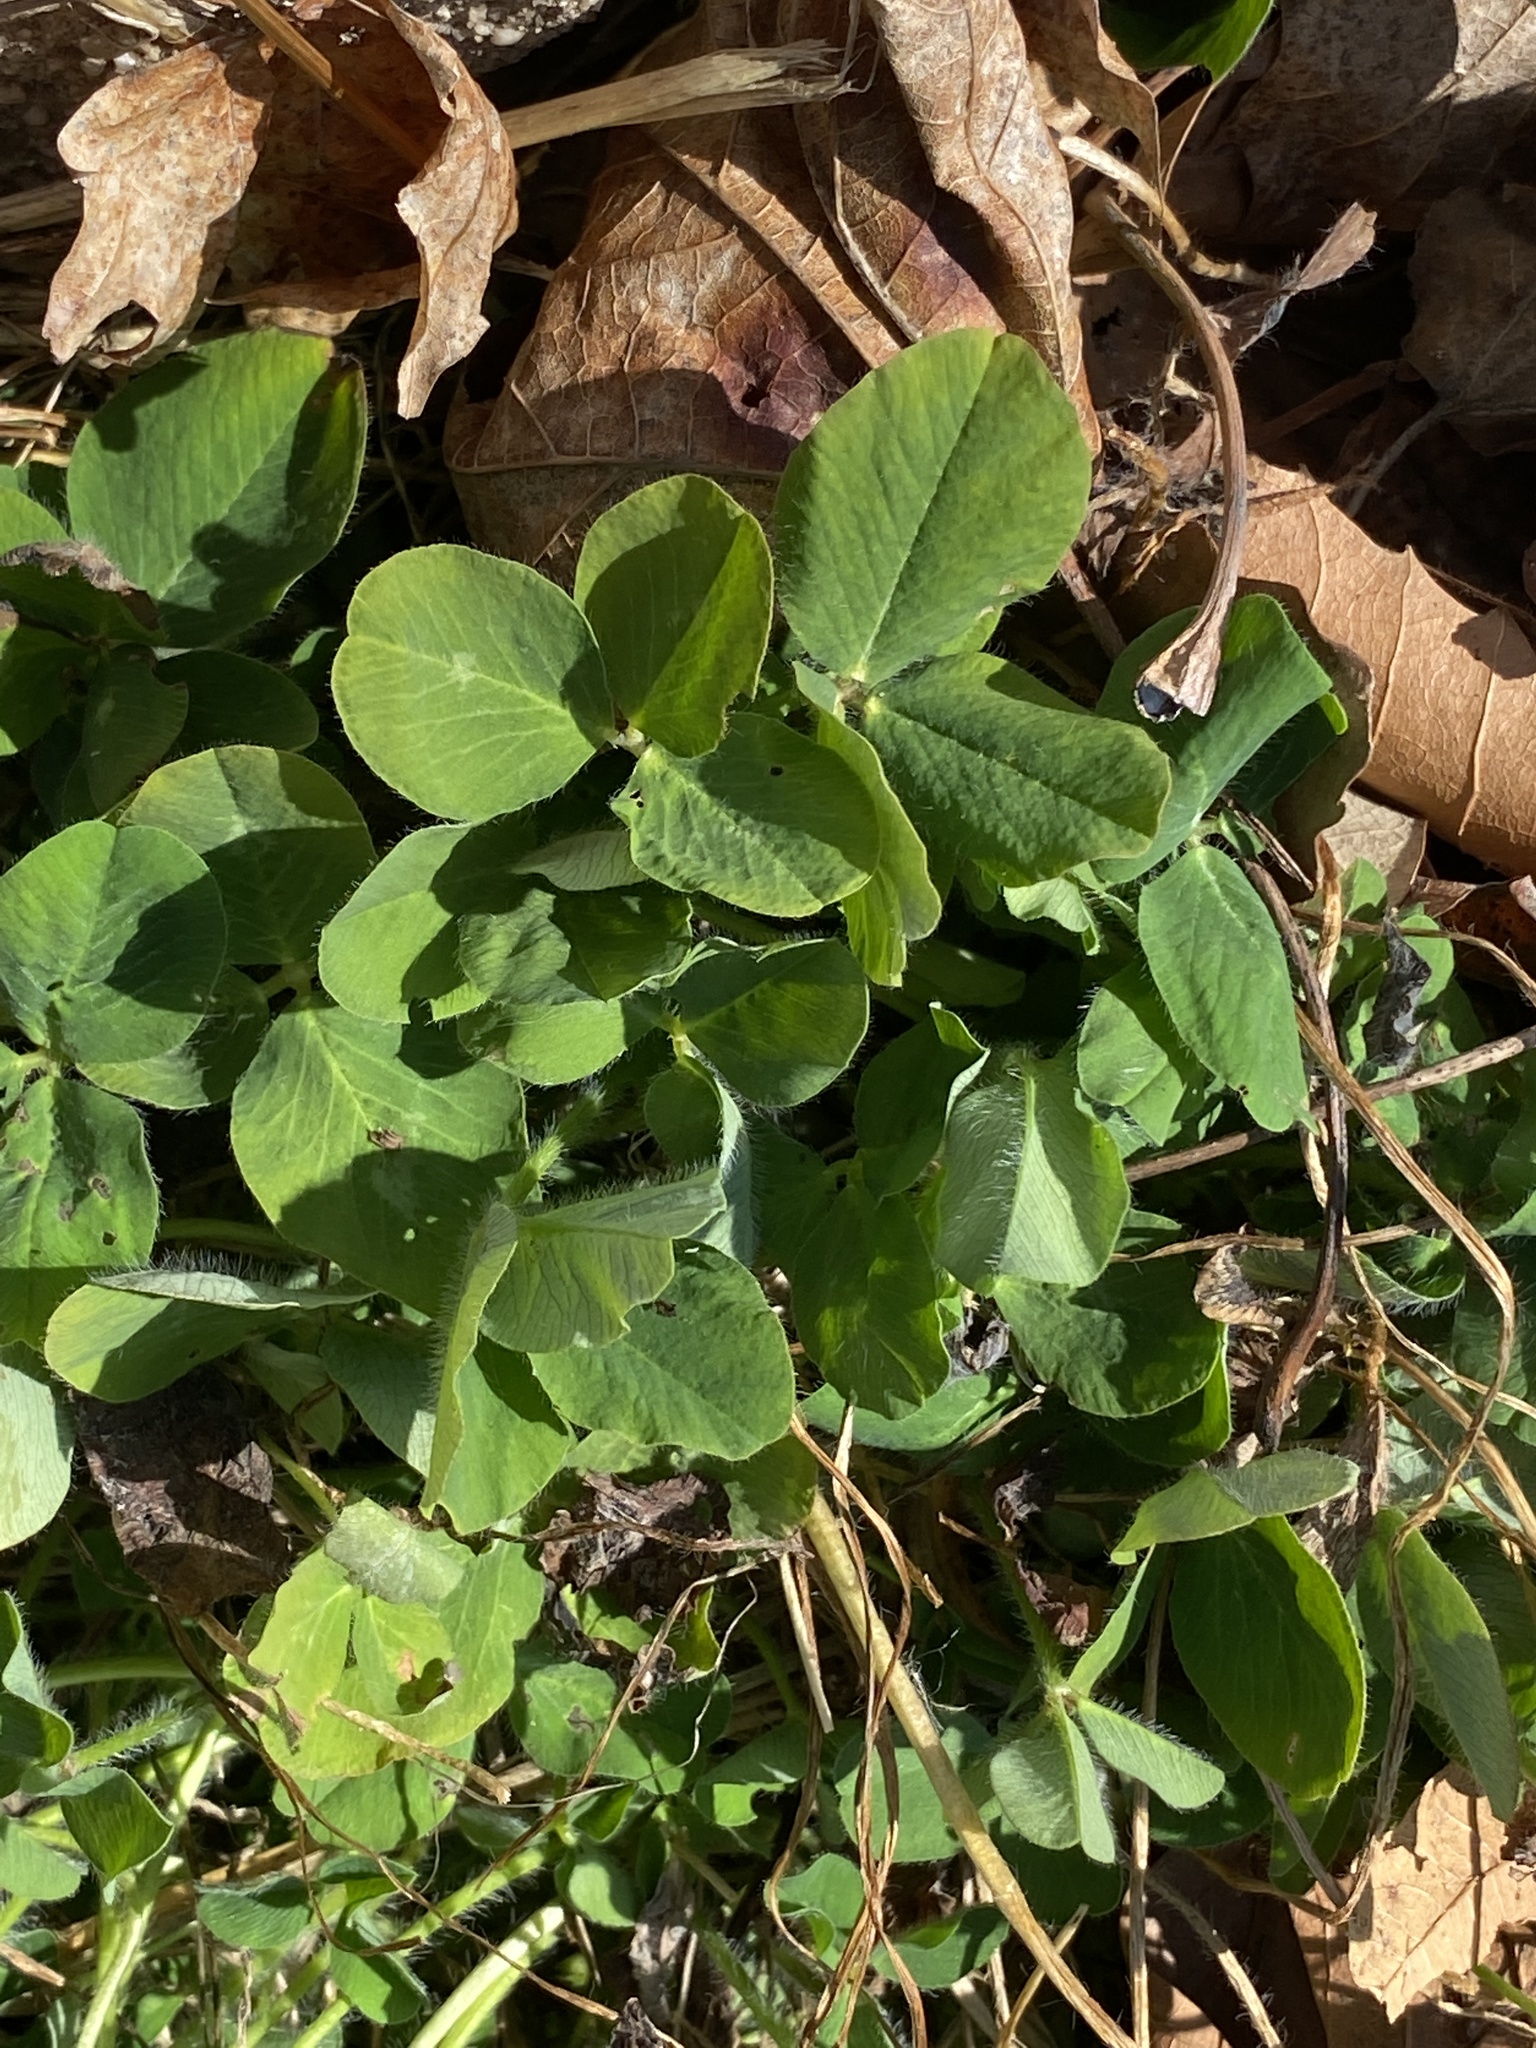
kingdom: Plantae
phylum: Tracheophyta
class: Magnoliopsida
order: Fabales
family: Fabaceae
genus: Trifolium
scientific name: Trifolium pratense
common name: Red clover
